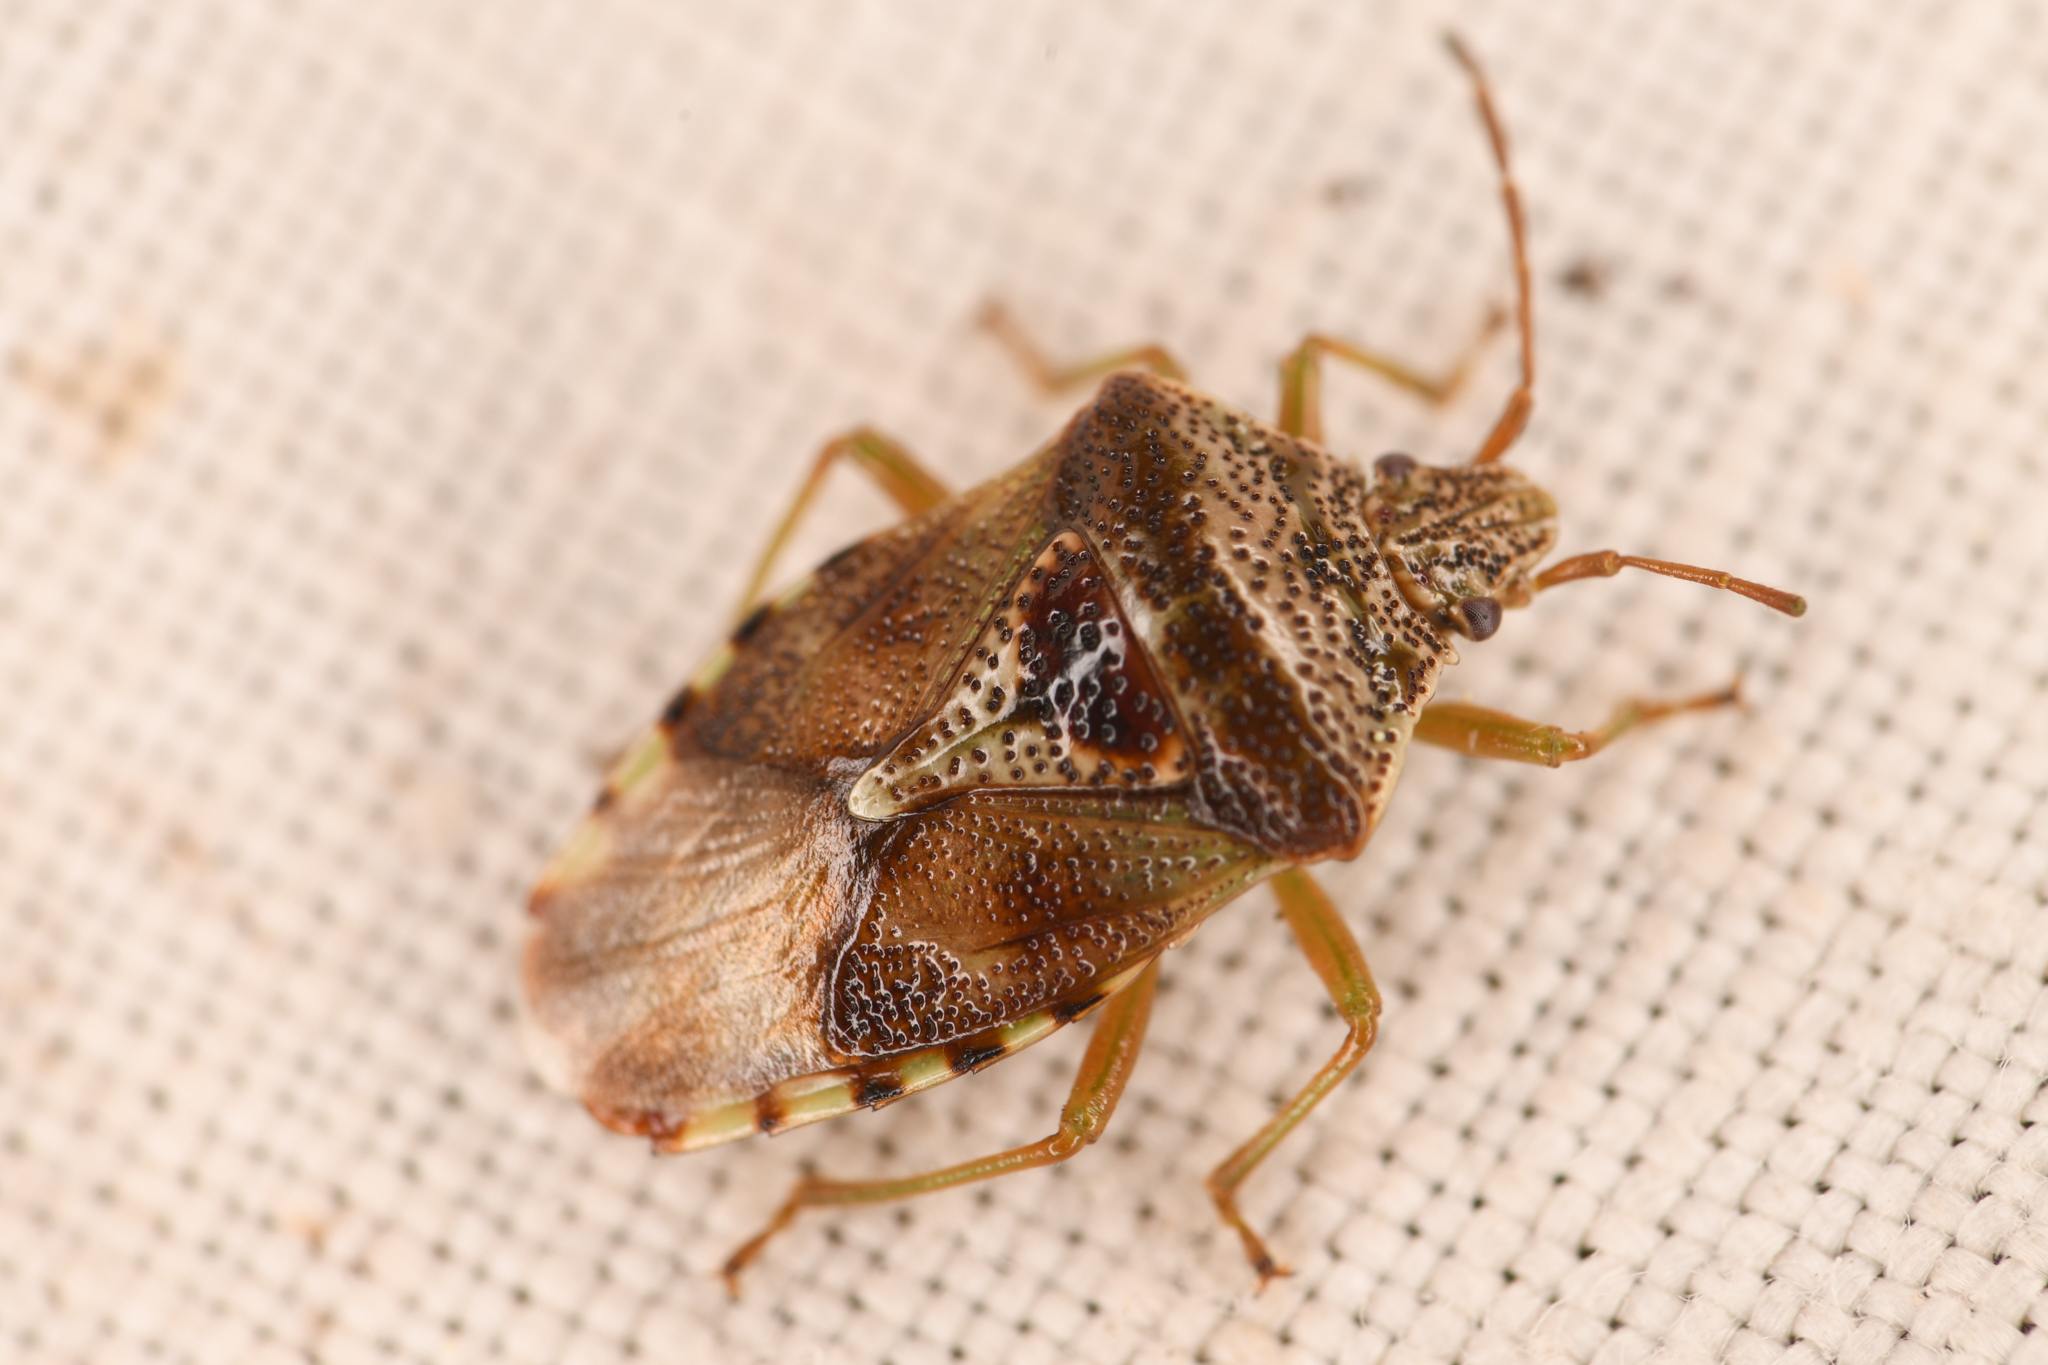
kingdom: Animalia
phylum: Arthropoda
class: Insecta
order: Hemiptera
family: Acanthosomatidae
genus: Elasmucha
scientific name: Elasmucha lateralis
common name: Shield bug
